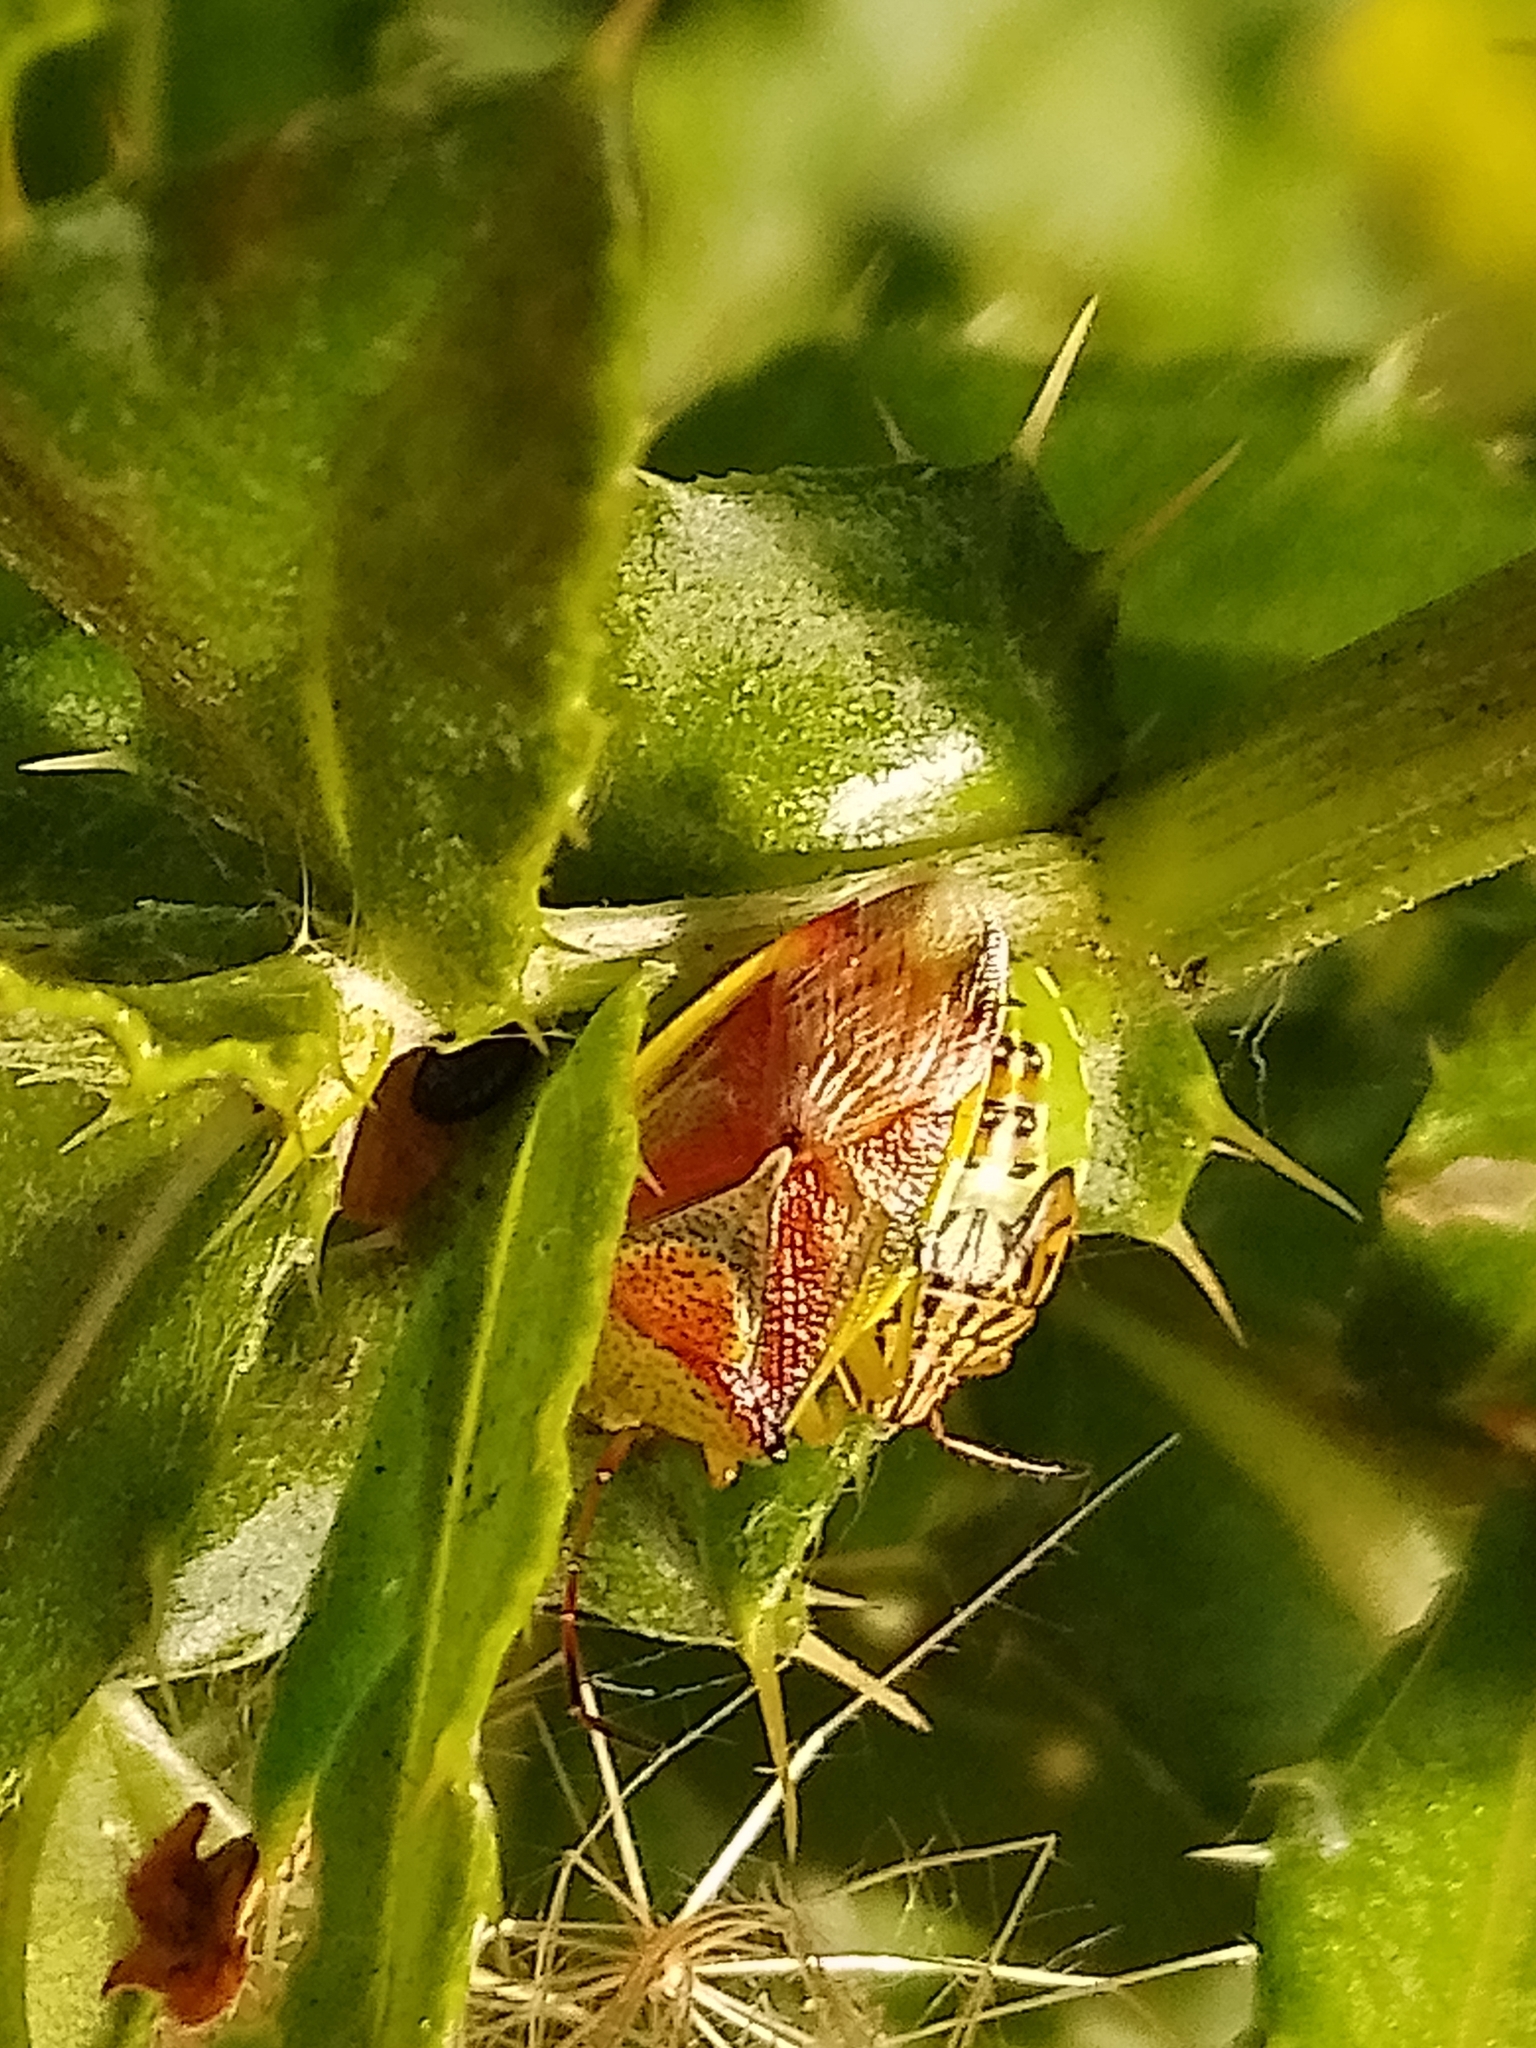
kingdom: Animalia
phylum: Arthropoda
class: Insecta
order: Hemiptera
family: Acanthosomatidae
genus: Elasmostethus
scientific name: Elasmostethus interstinctus
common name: Birch shieldbug
